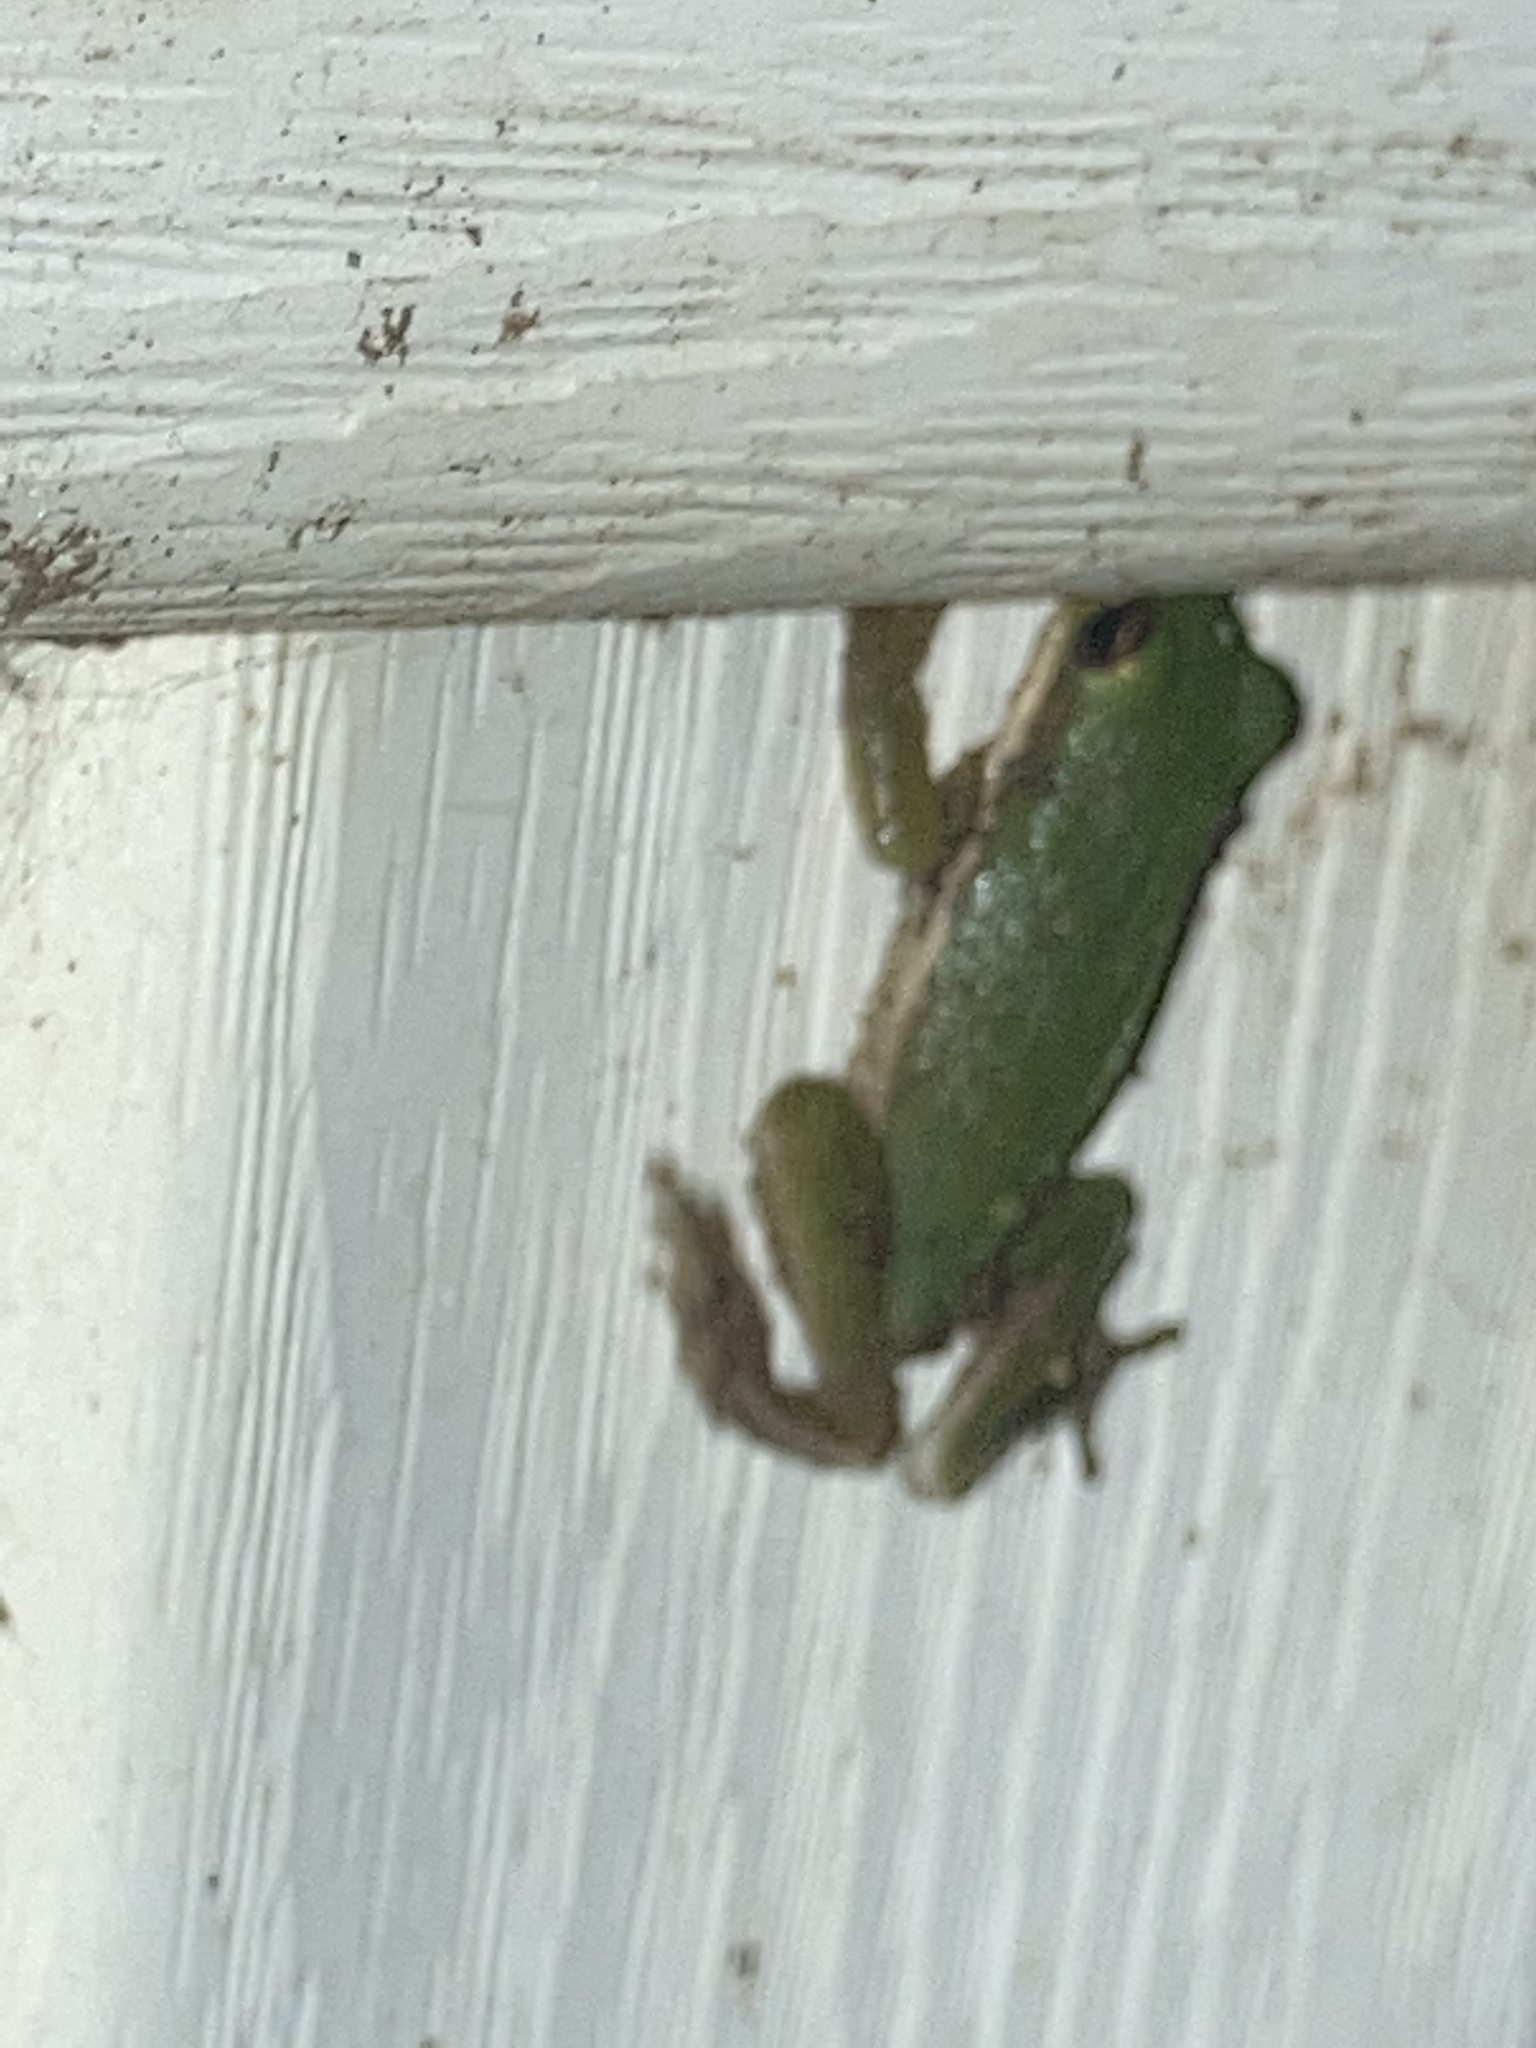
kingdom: Animalia
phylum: Chordata
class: Amphibia
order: Anura
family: Hylidae
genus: Dryophytes
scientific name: Dryophytes cinereus
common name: Green treefrog
